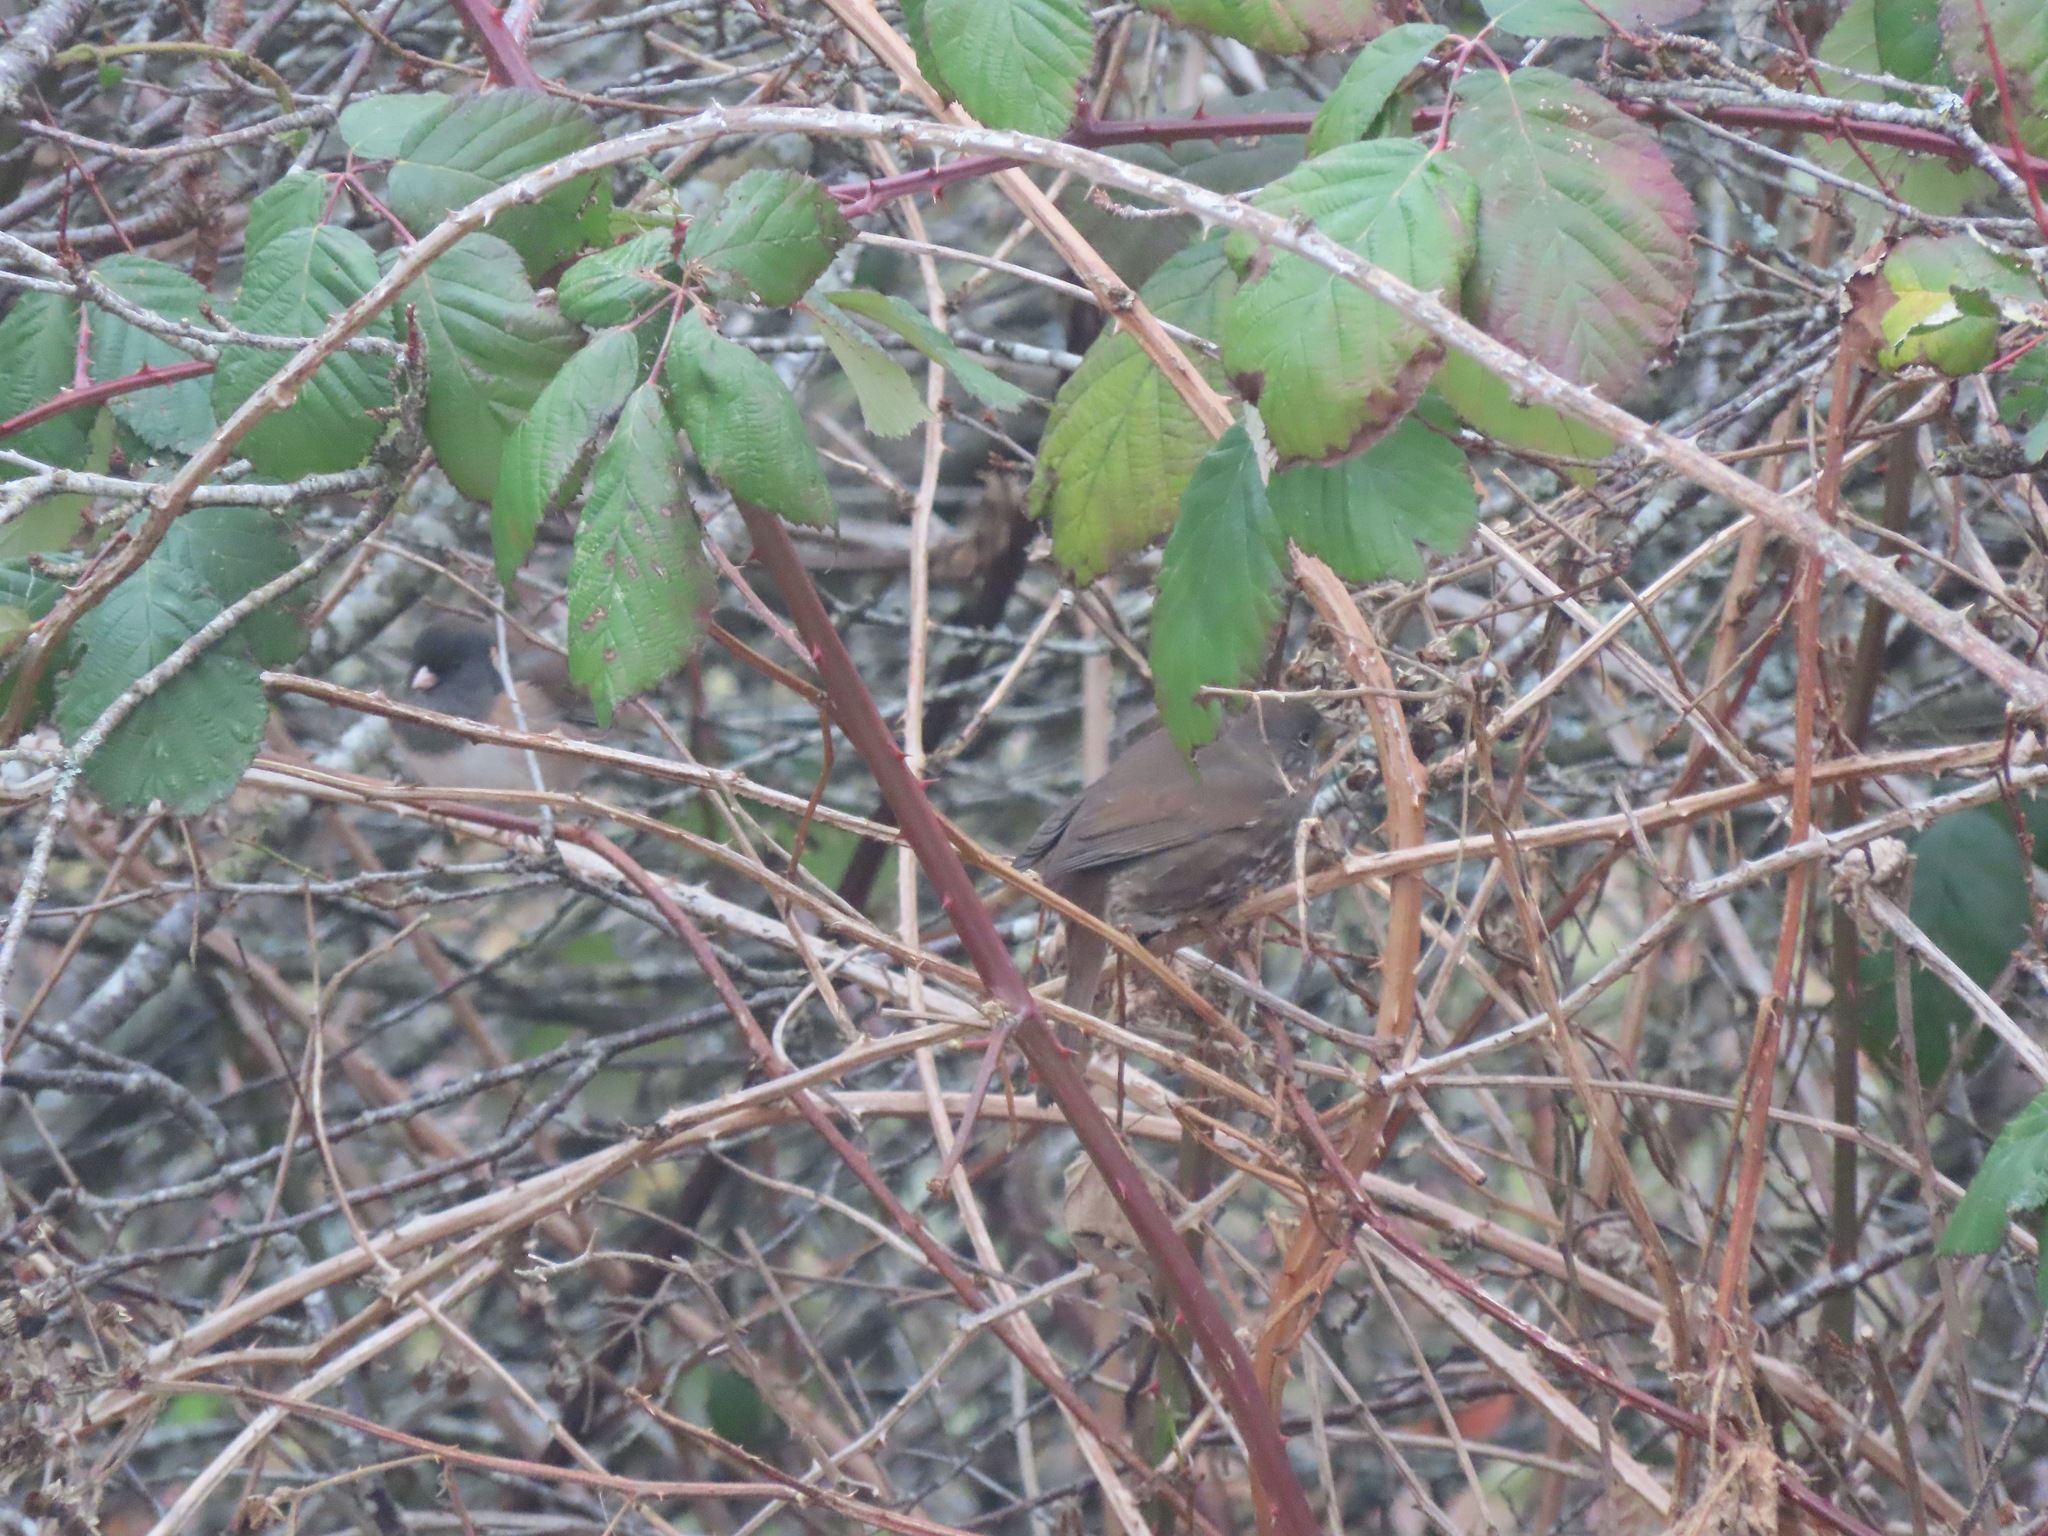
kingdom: Animalia
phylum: Chordata
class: Aves
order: Passeriformes
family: Passerellidae
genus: Passerella
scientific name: Passerella iliaca
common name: Fox sparrow
